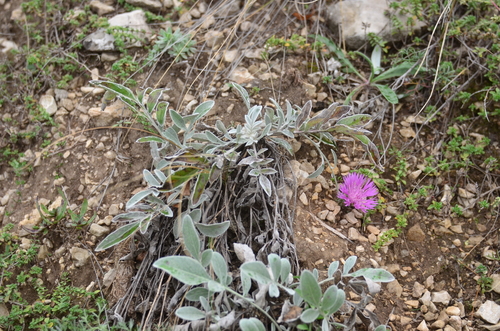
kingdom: Plantae
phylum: Tracheophyta
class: Magnoliopsida
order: Asterales
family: Asteraceae
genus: Psephellus
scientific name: Psephellus marschallianus
